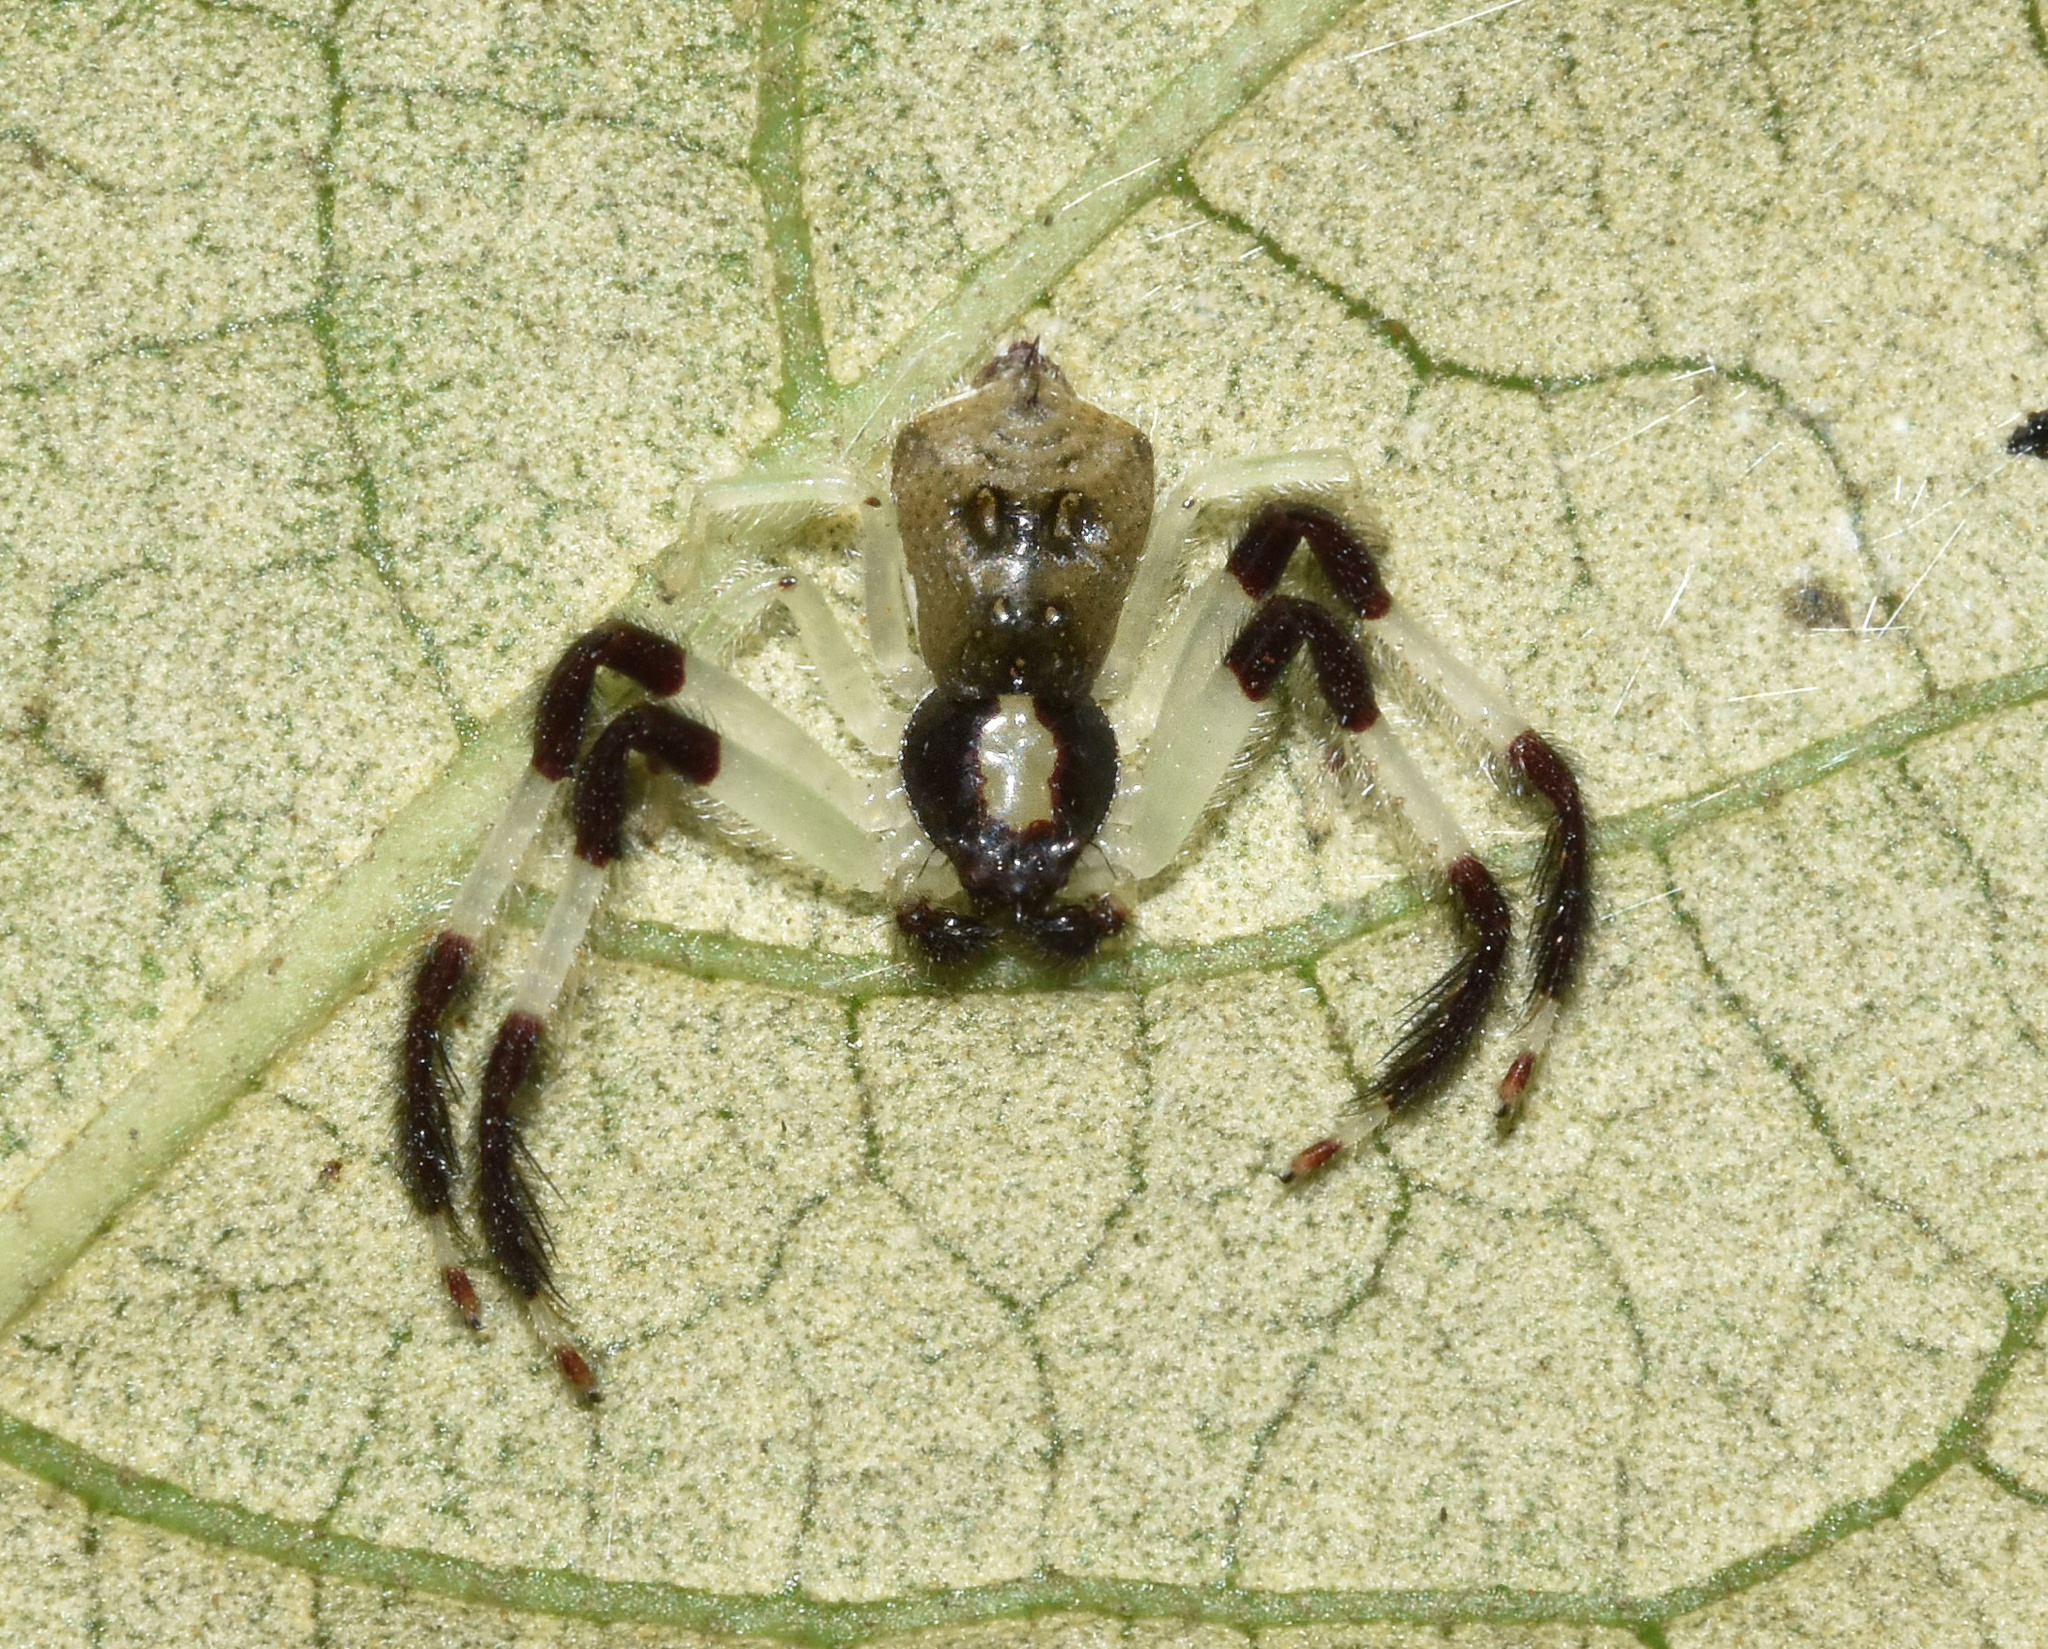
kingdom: Animalia
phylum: Arthropoda
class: Arachnida
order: Araneae
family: Thomisidae
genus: Trichopagis
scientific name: Trichopagis manicata
